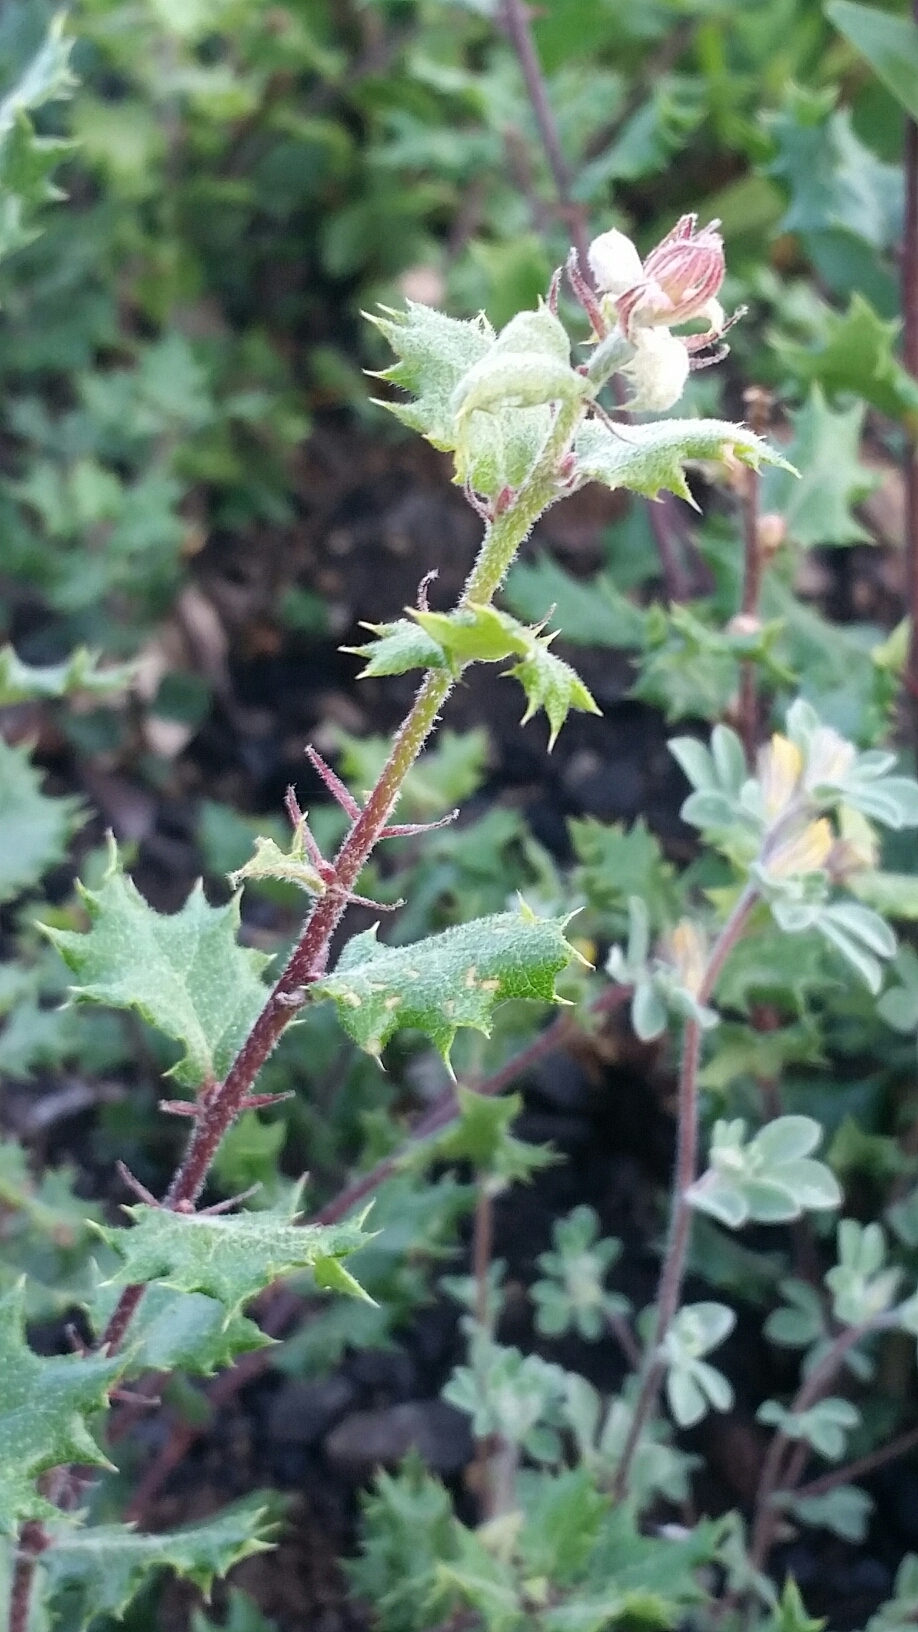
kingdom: Plantae
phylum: Tracheophyta
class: Magnoliopsida
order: Fagales
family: Fagaceae
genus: Quercus
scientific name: Quercus durata
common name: Leather oak
